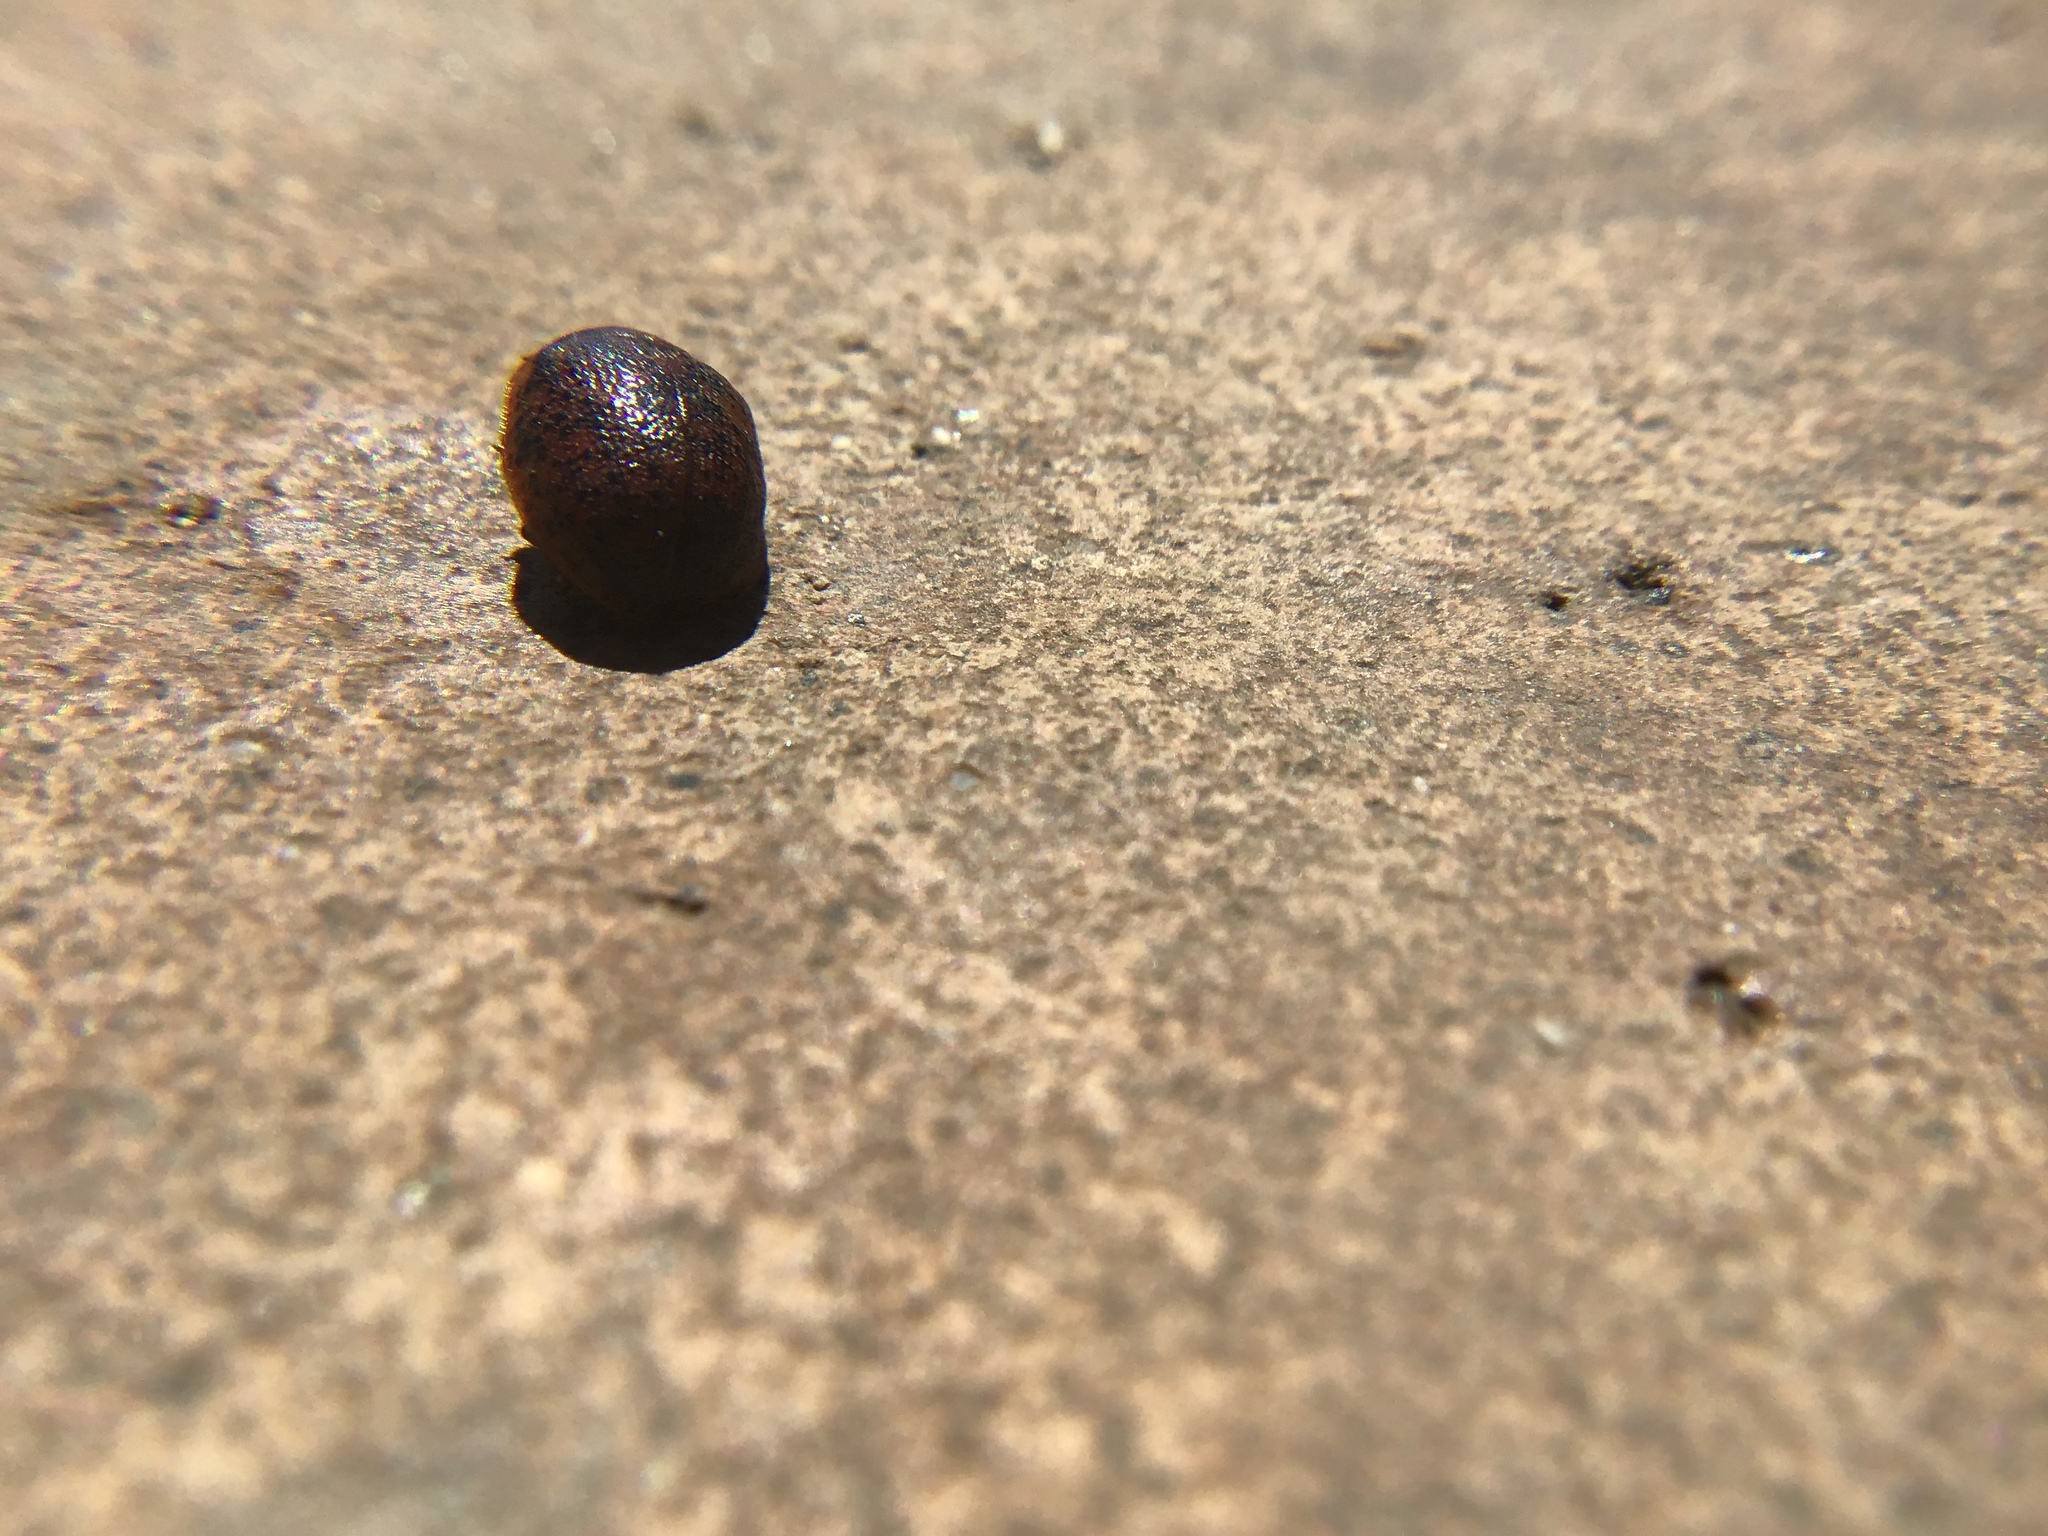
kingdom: Animalia
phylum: Arthropoda
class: Insecta
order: Coleoptera
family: Chrysomelidae
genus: Trachymela
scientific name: Trachymela sloanei
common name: Australian tortoise beetle
